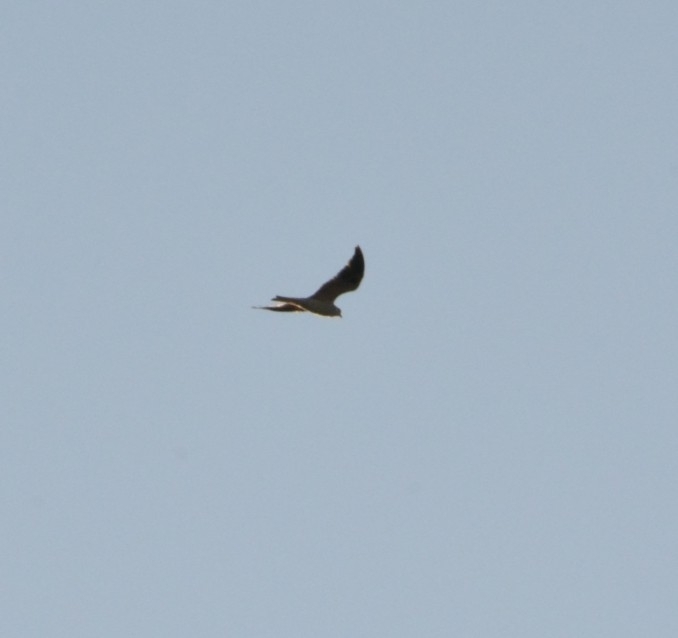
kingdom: Animalia
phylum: Chordata
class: Aves
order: Accipitriformes
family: Accipitridae
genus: Elanus
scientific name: Elanus leucurus
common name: White-tailed kite
